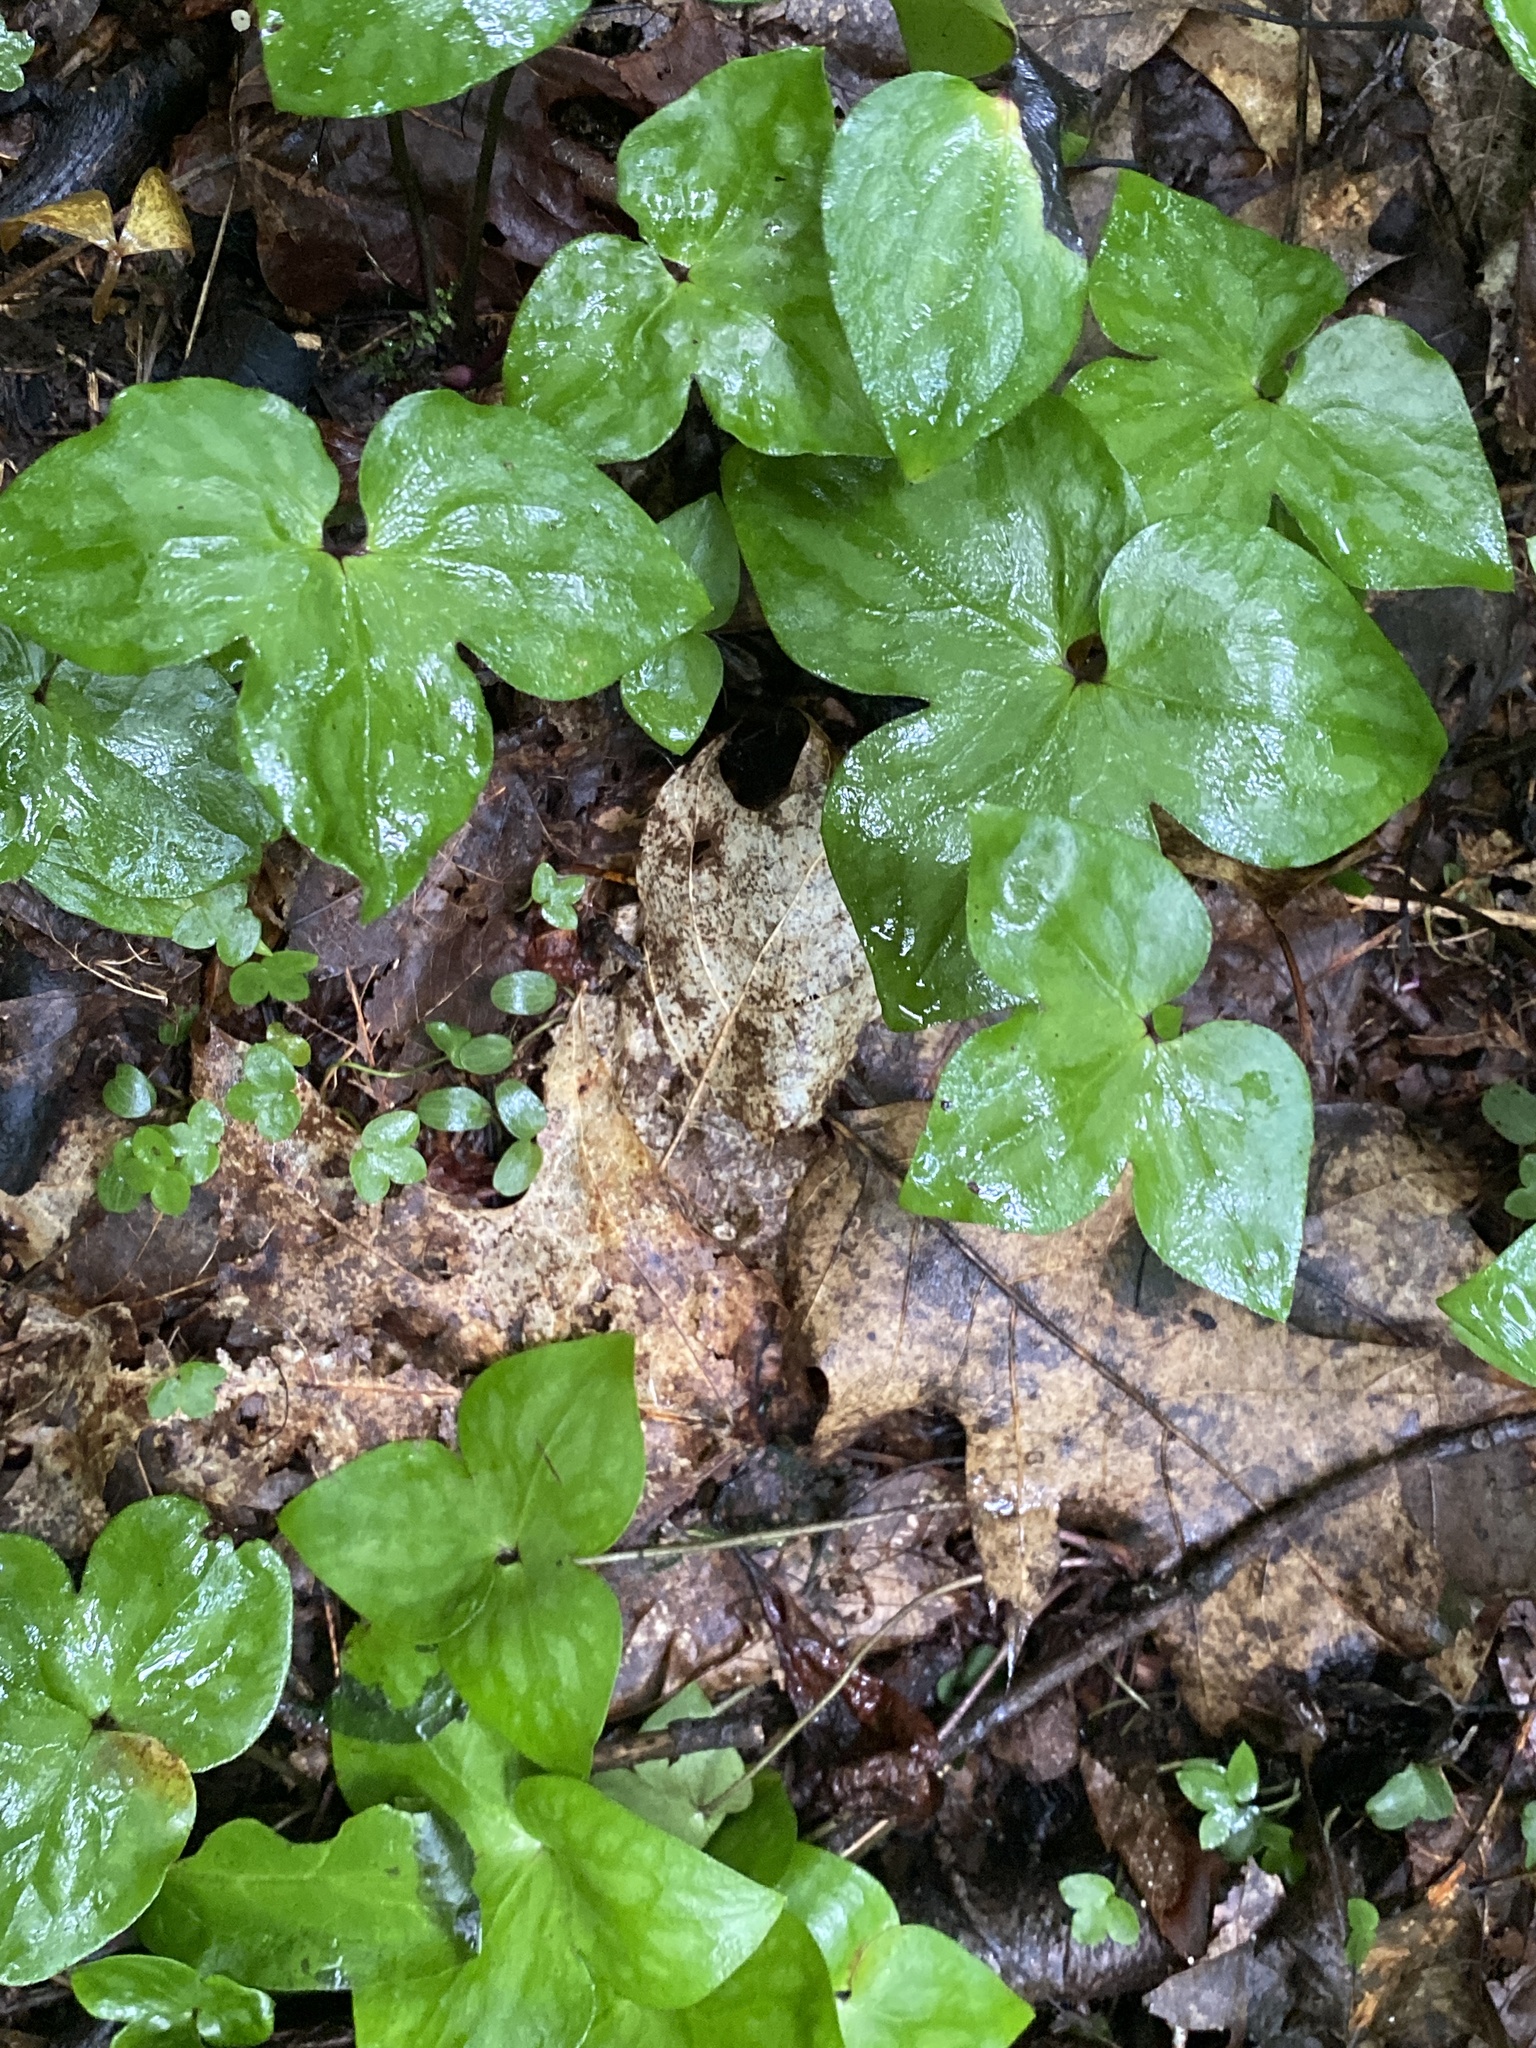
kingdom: Plantae
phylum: Tracheophyta
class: Magnoliopsida
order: Ranunculales
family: Ranunculaceae
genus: Hepatica
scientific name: Hepatica acutiloba
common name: Sharp-lobed hepatica
